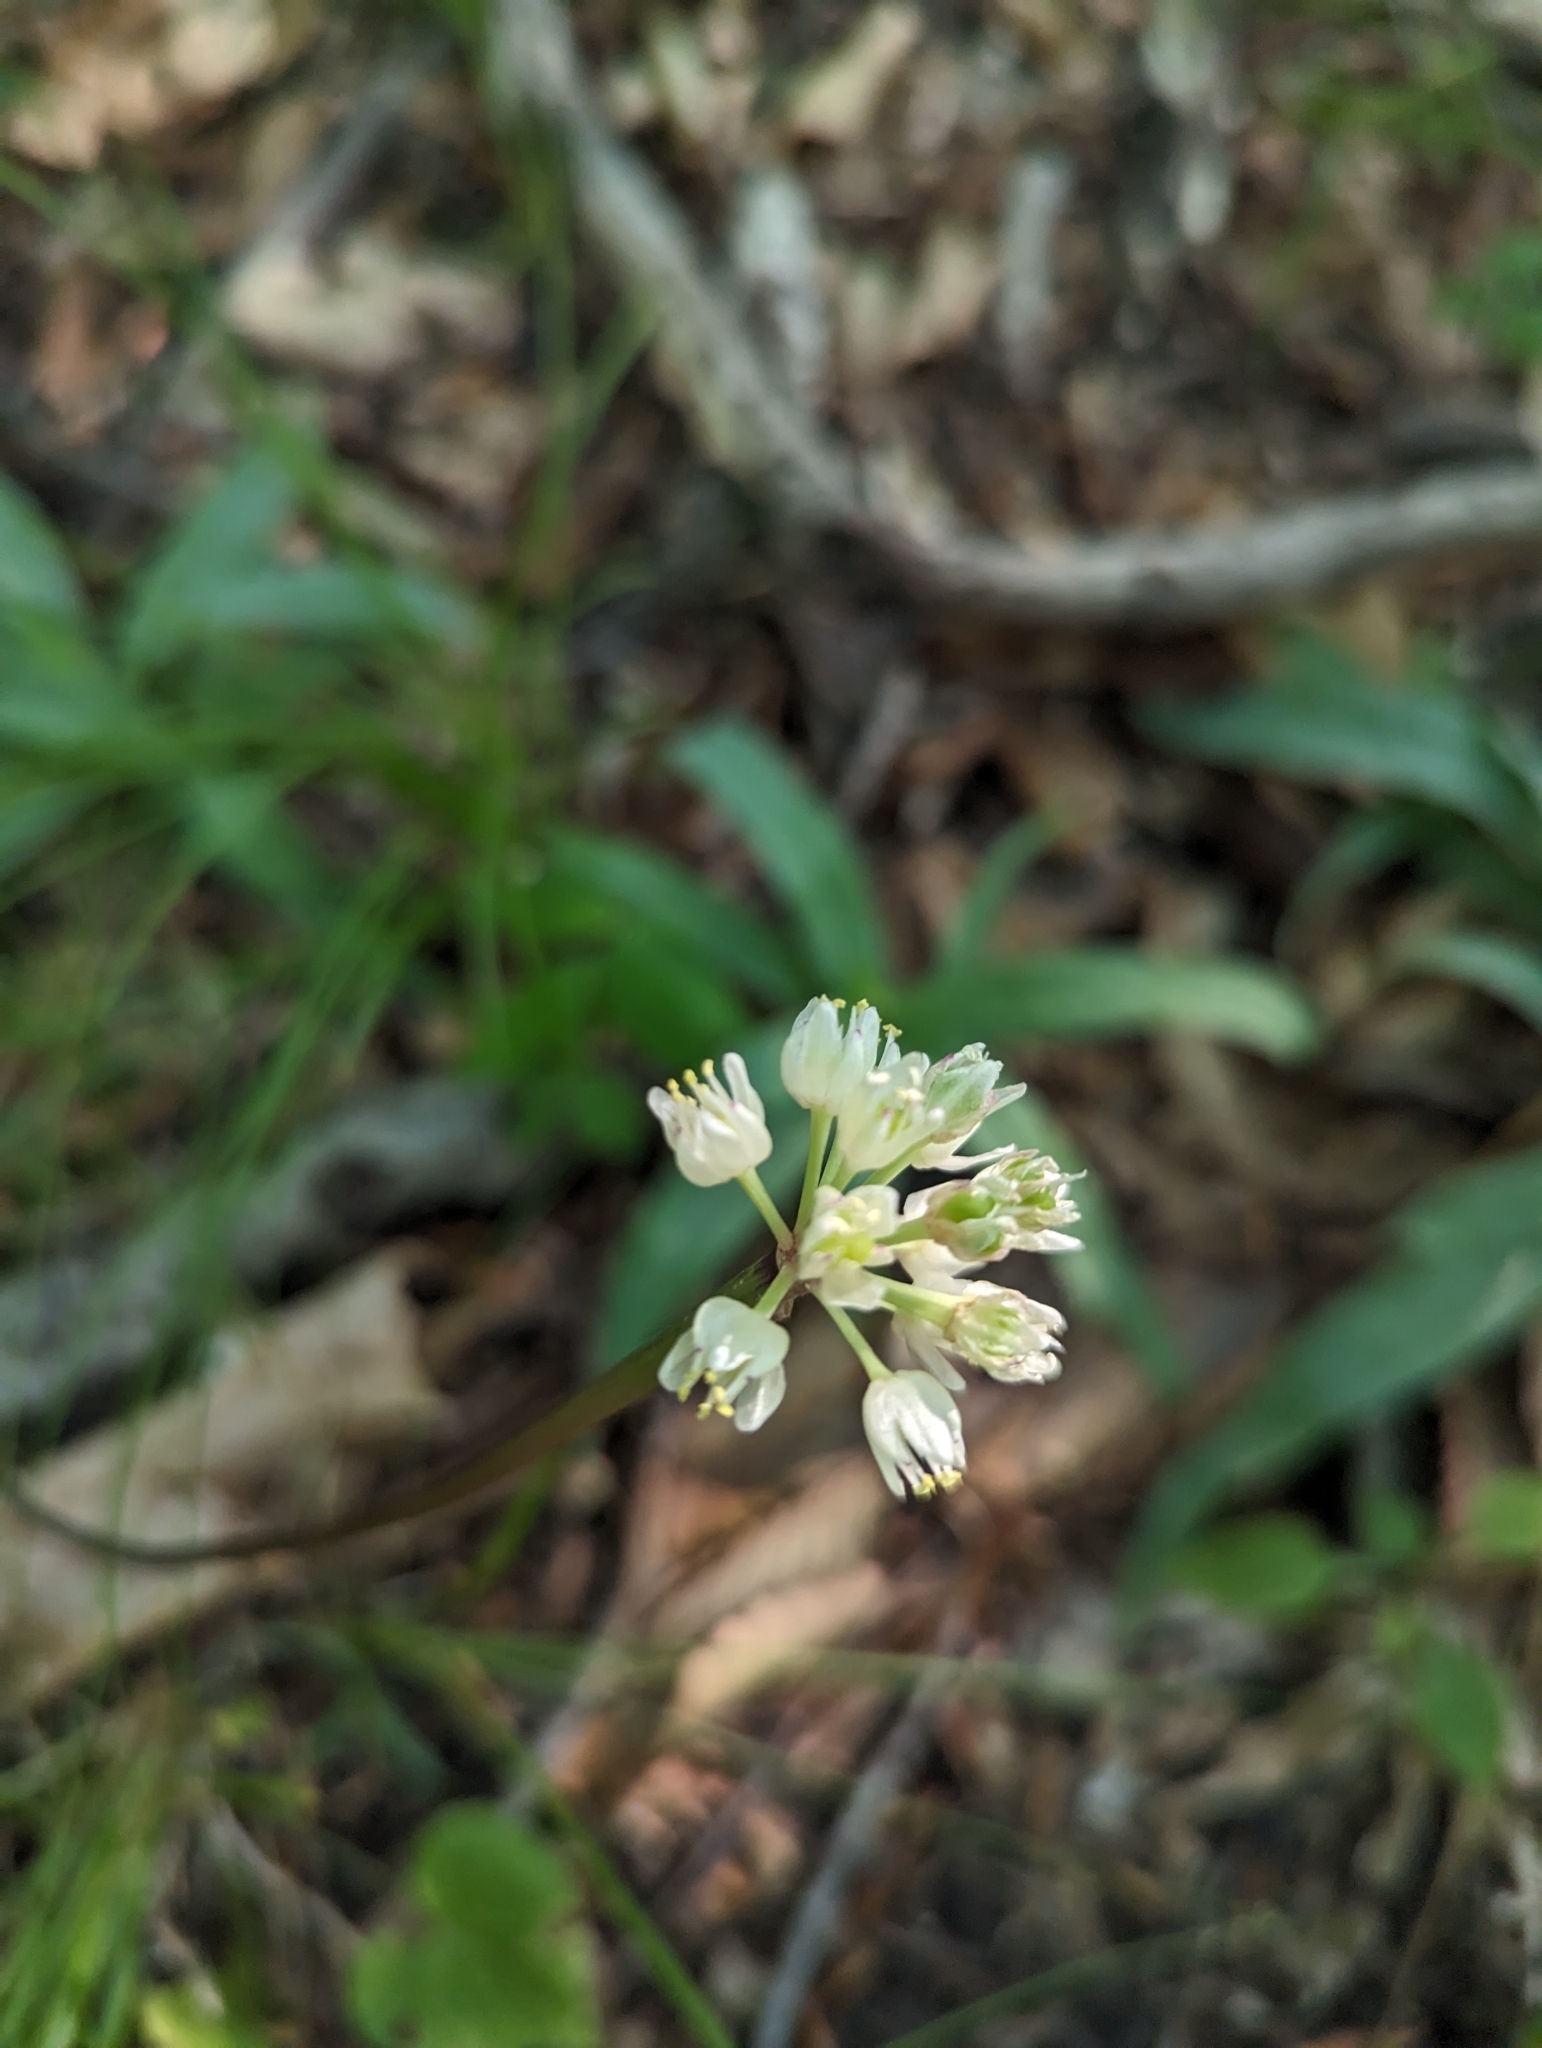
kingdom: Plantae
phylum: Tracheophyta
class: Liliopsida
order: Asparagales
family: Amaryllidaceae
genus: Allium
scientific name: Allium tricoccum
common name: Ramp
